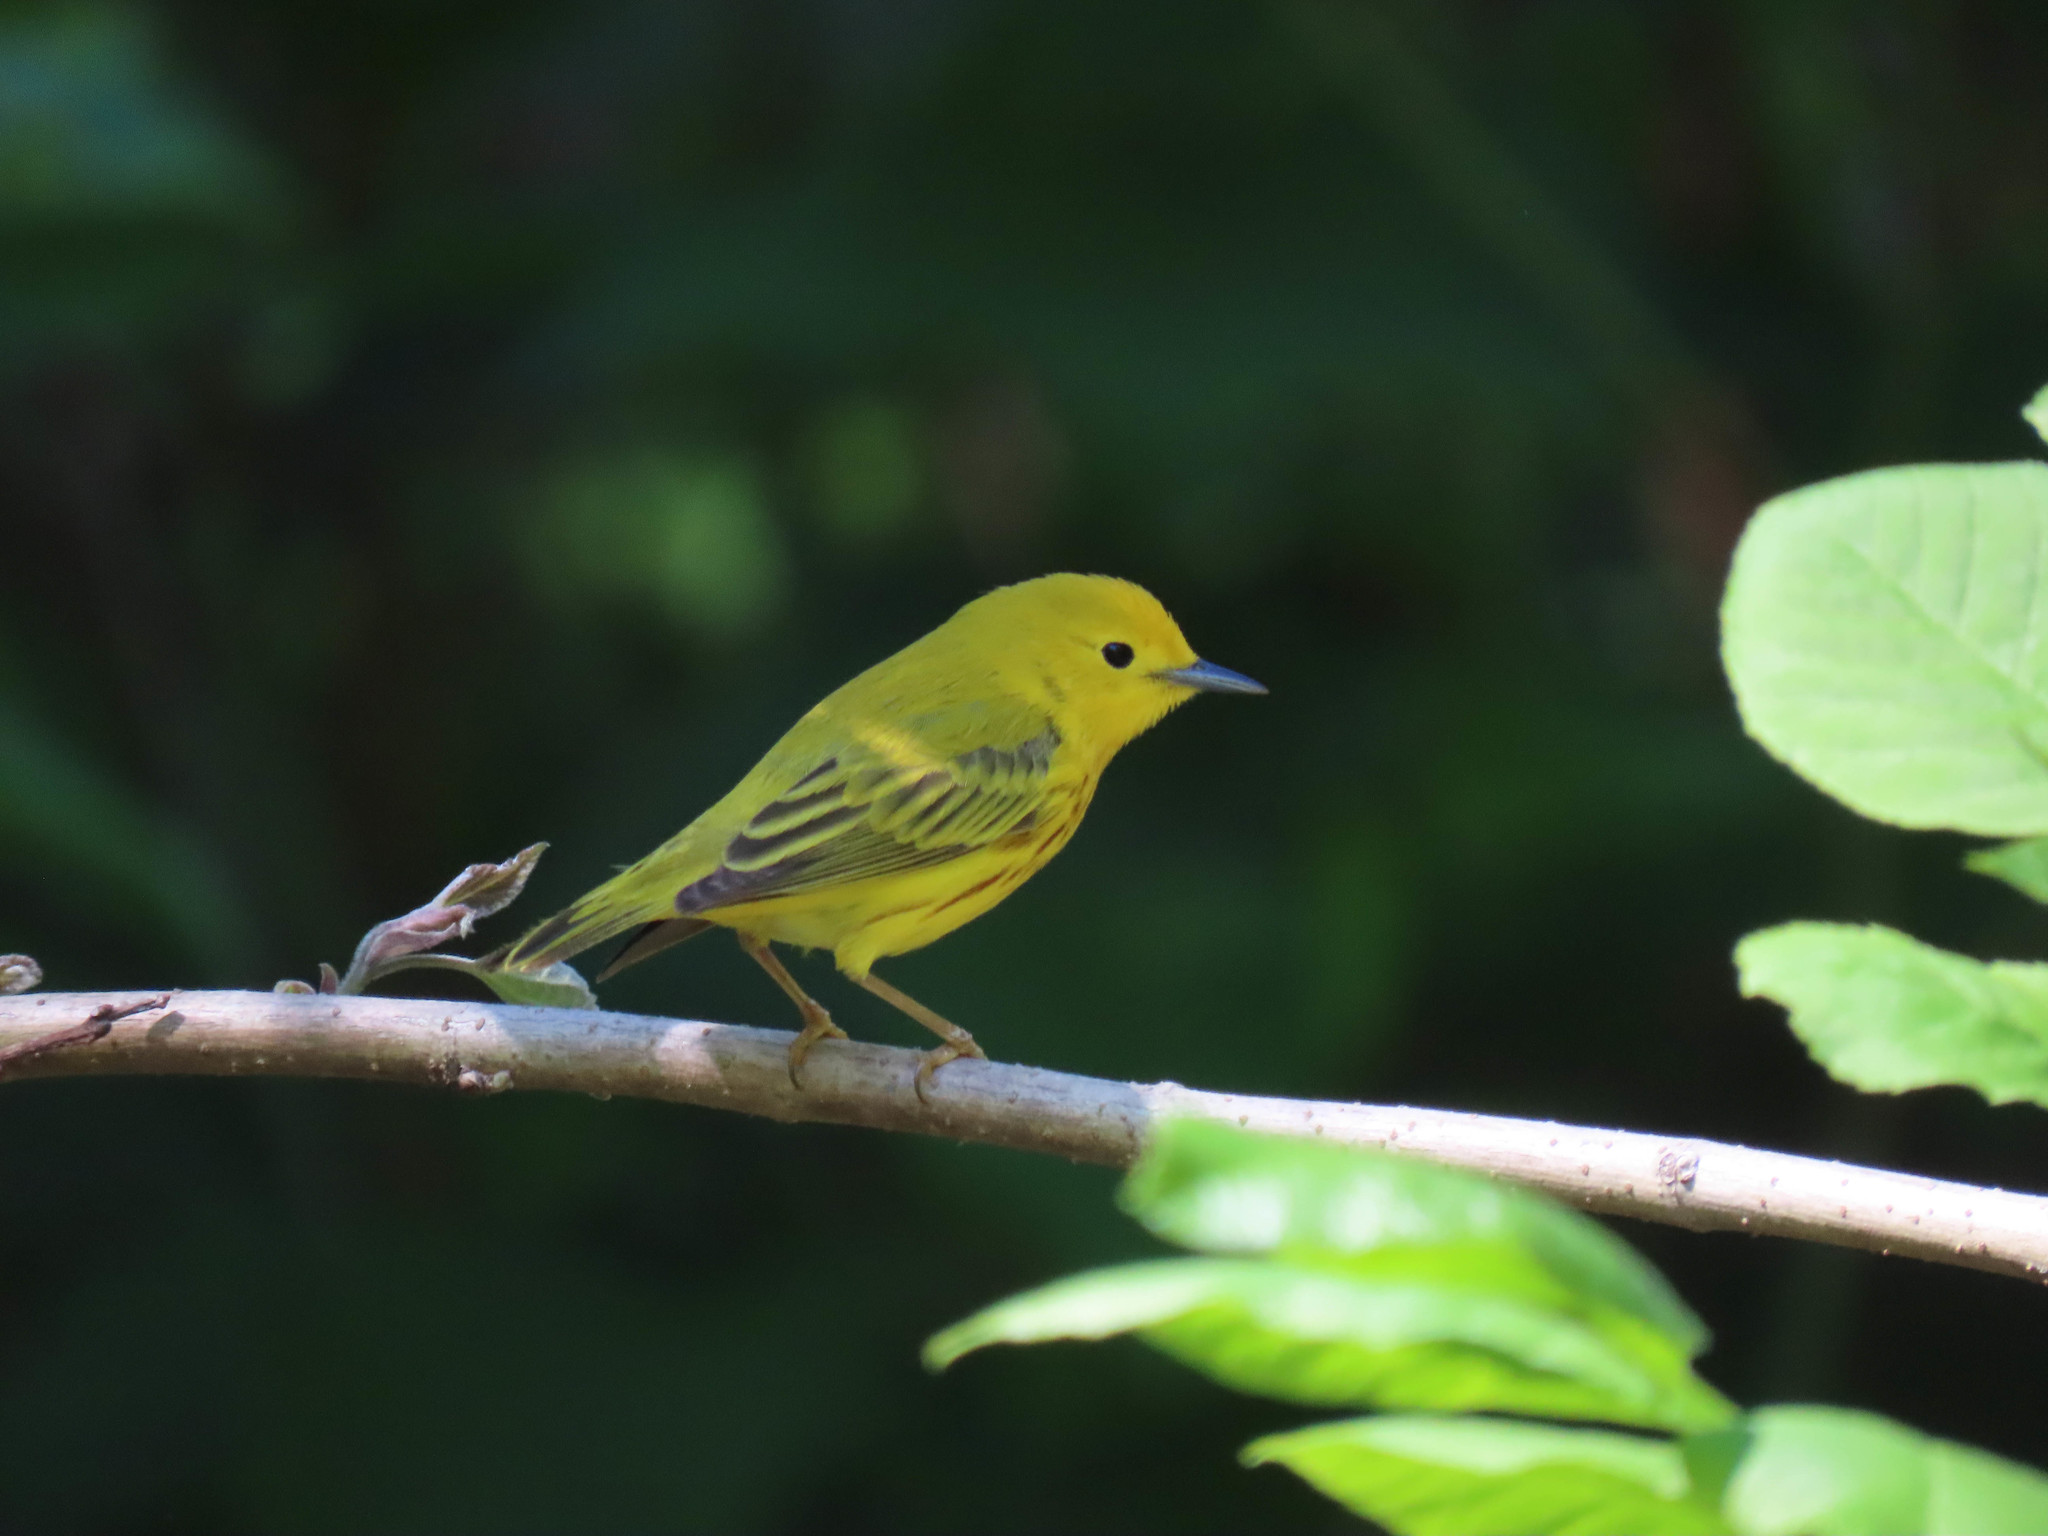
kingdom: Animalia
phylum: Chordata
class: Aves
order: Passeriformes
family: Parulidae
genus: Setophaga
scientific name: Setophaga petechia
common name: Yellow warbler
